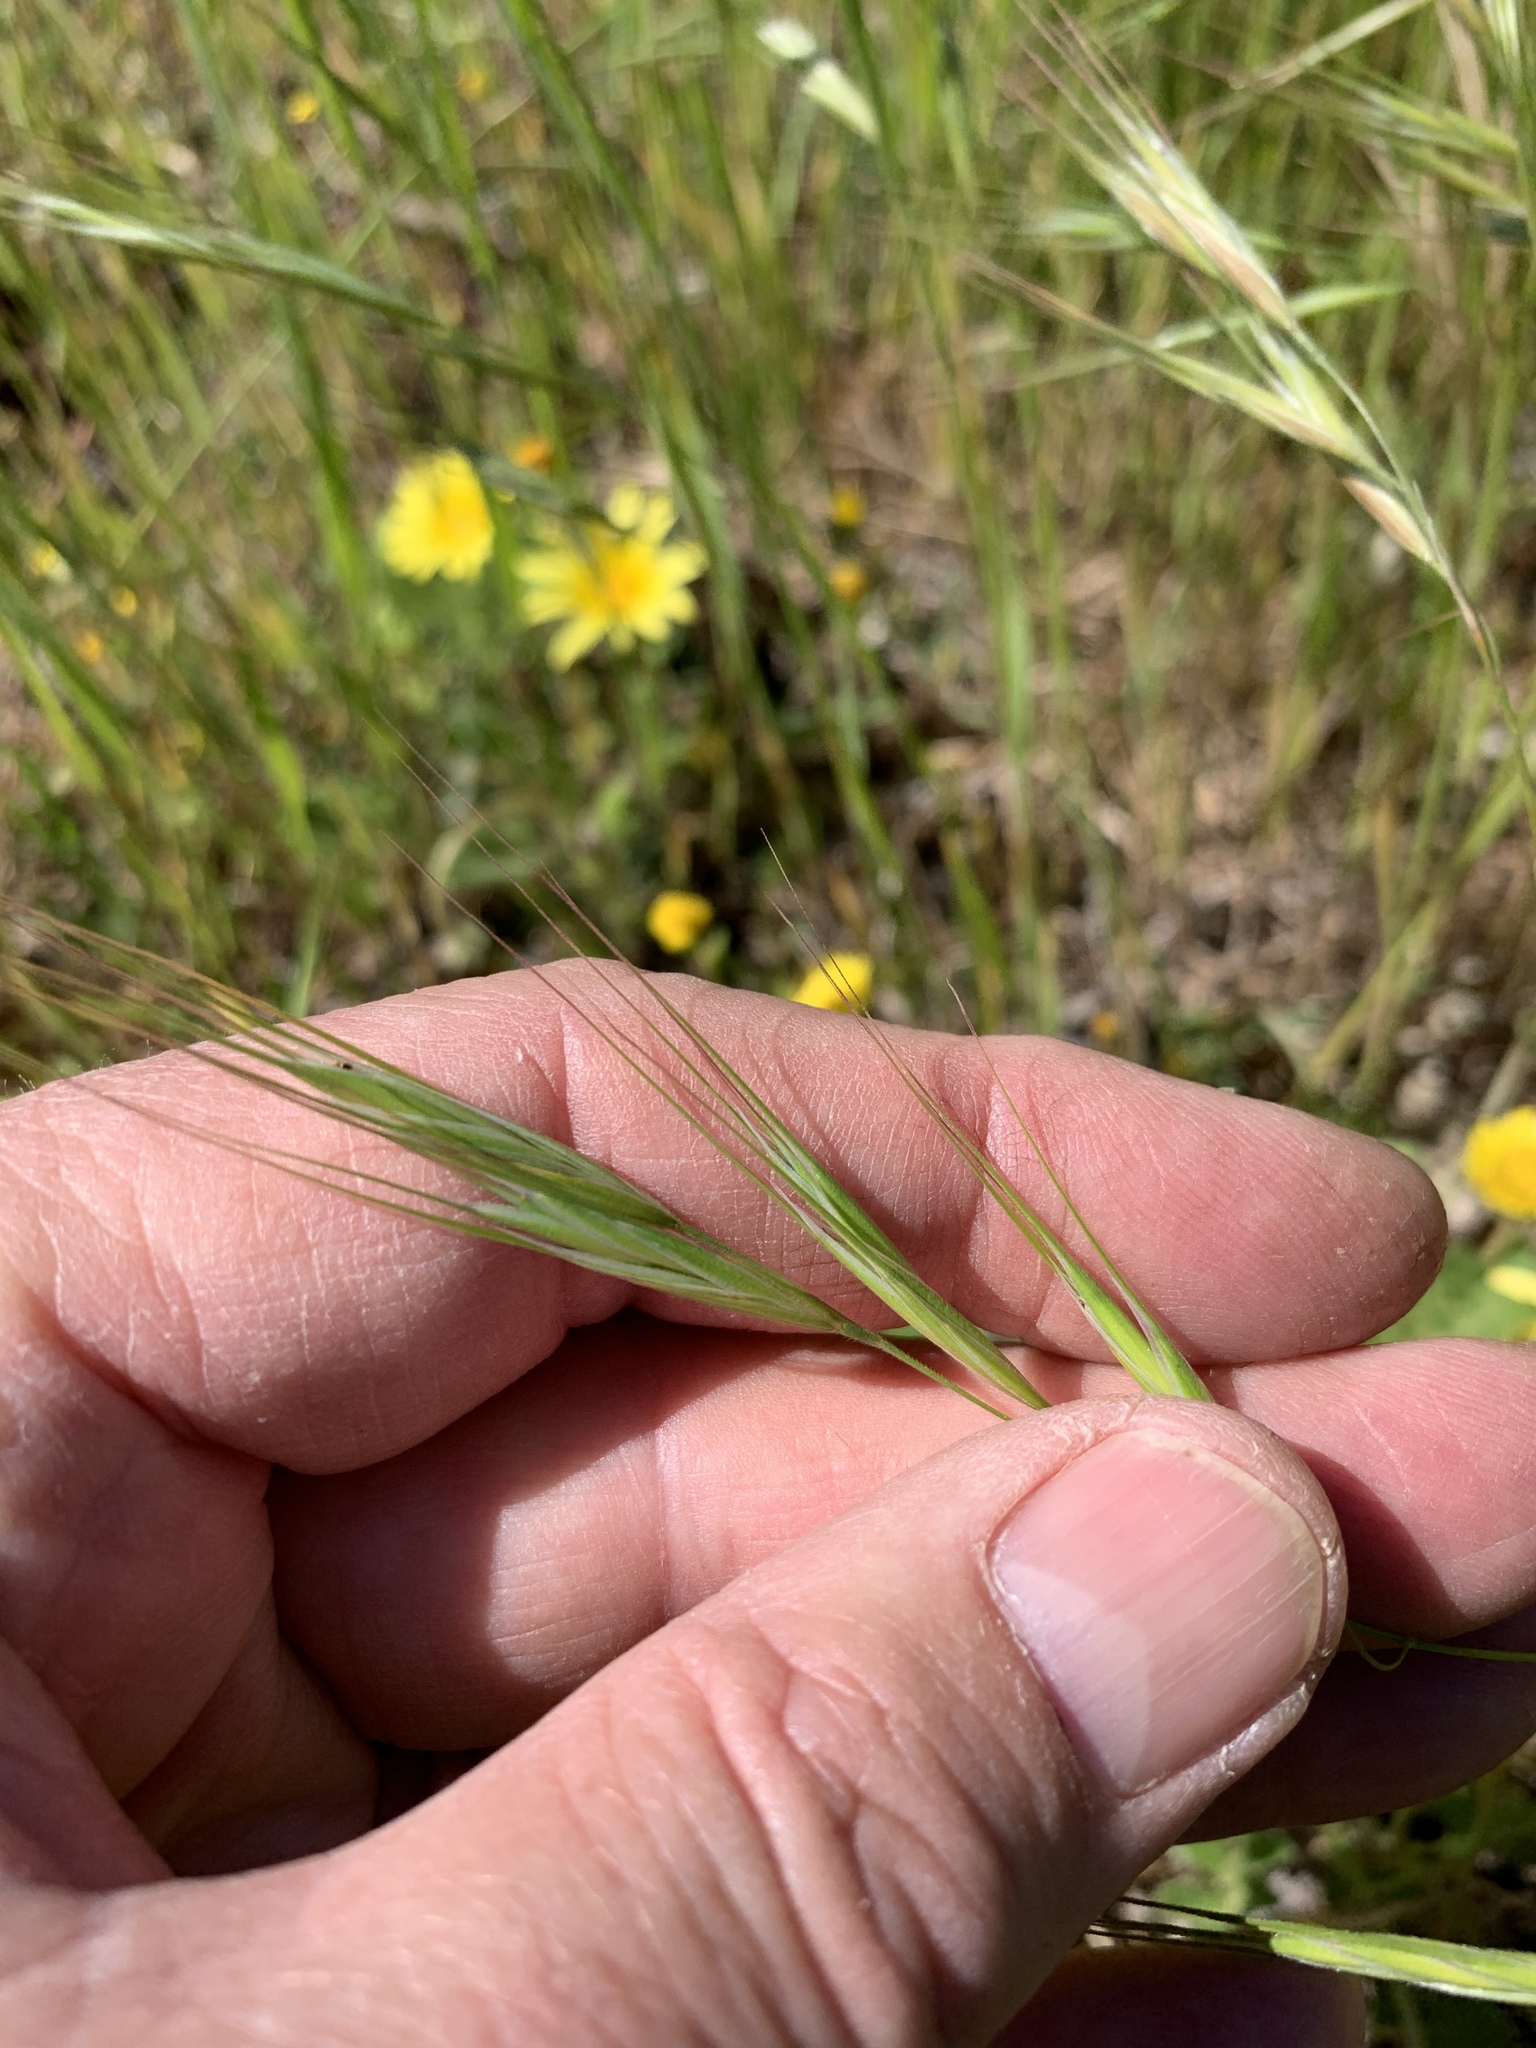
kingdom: Plantae
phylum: Tracheophyta
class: Liliopsida
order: Poales
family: Poaceae
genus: Bromus
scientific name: Bromus diandrus
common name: Ripgut brome
